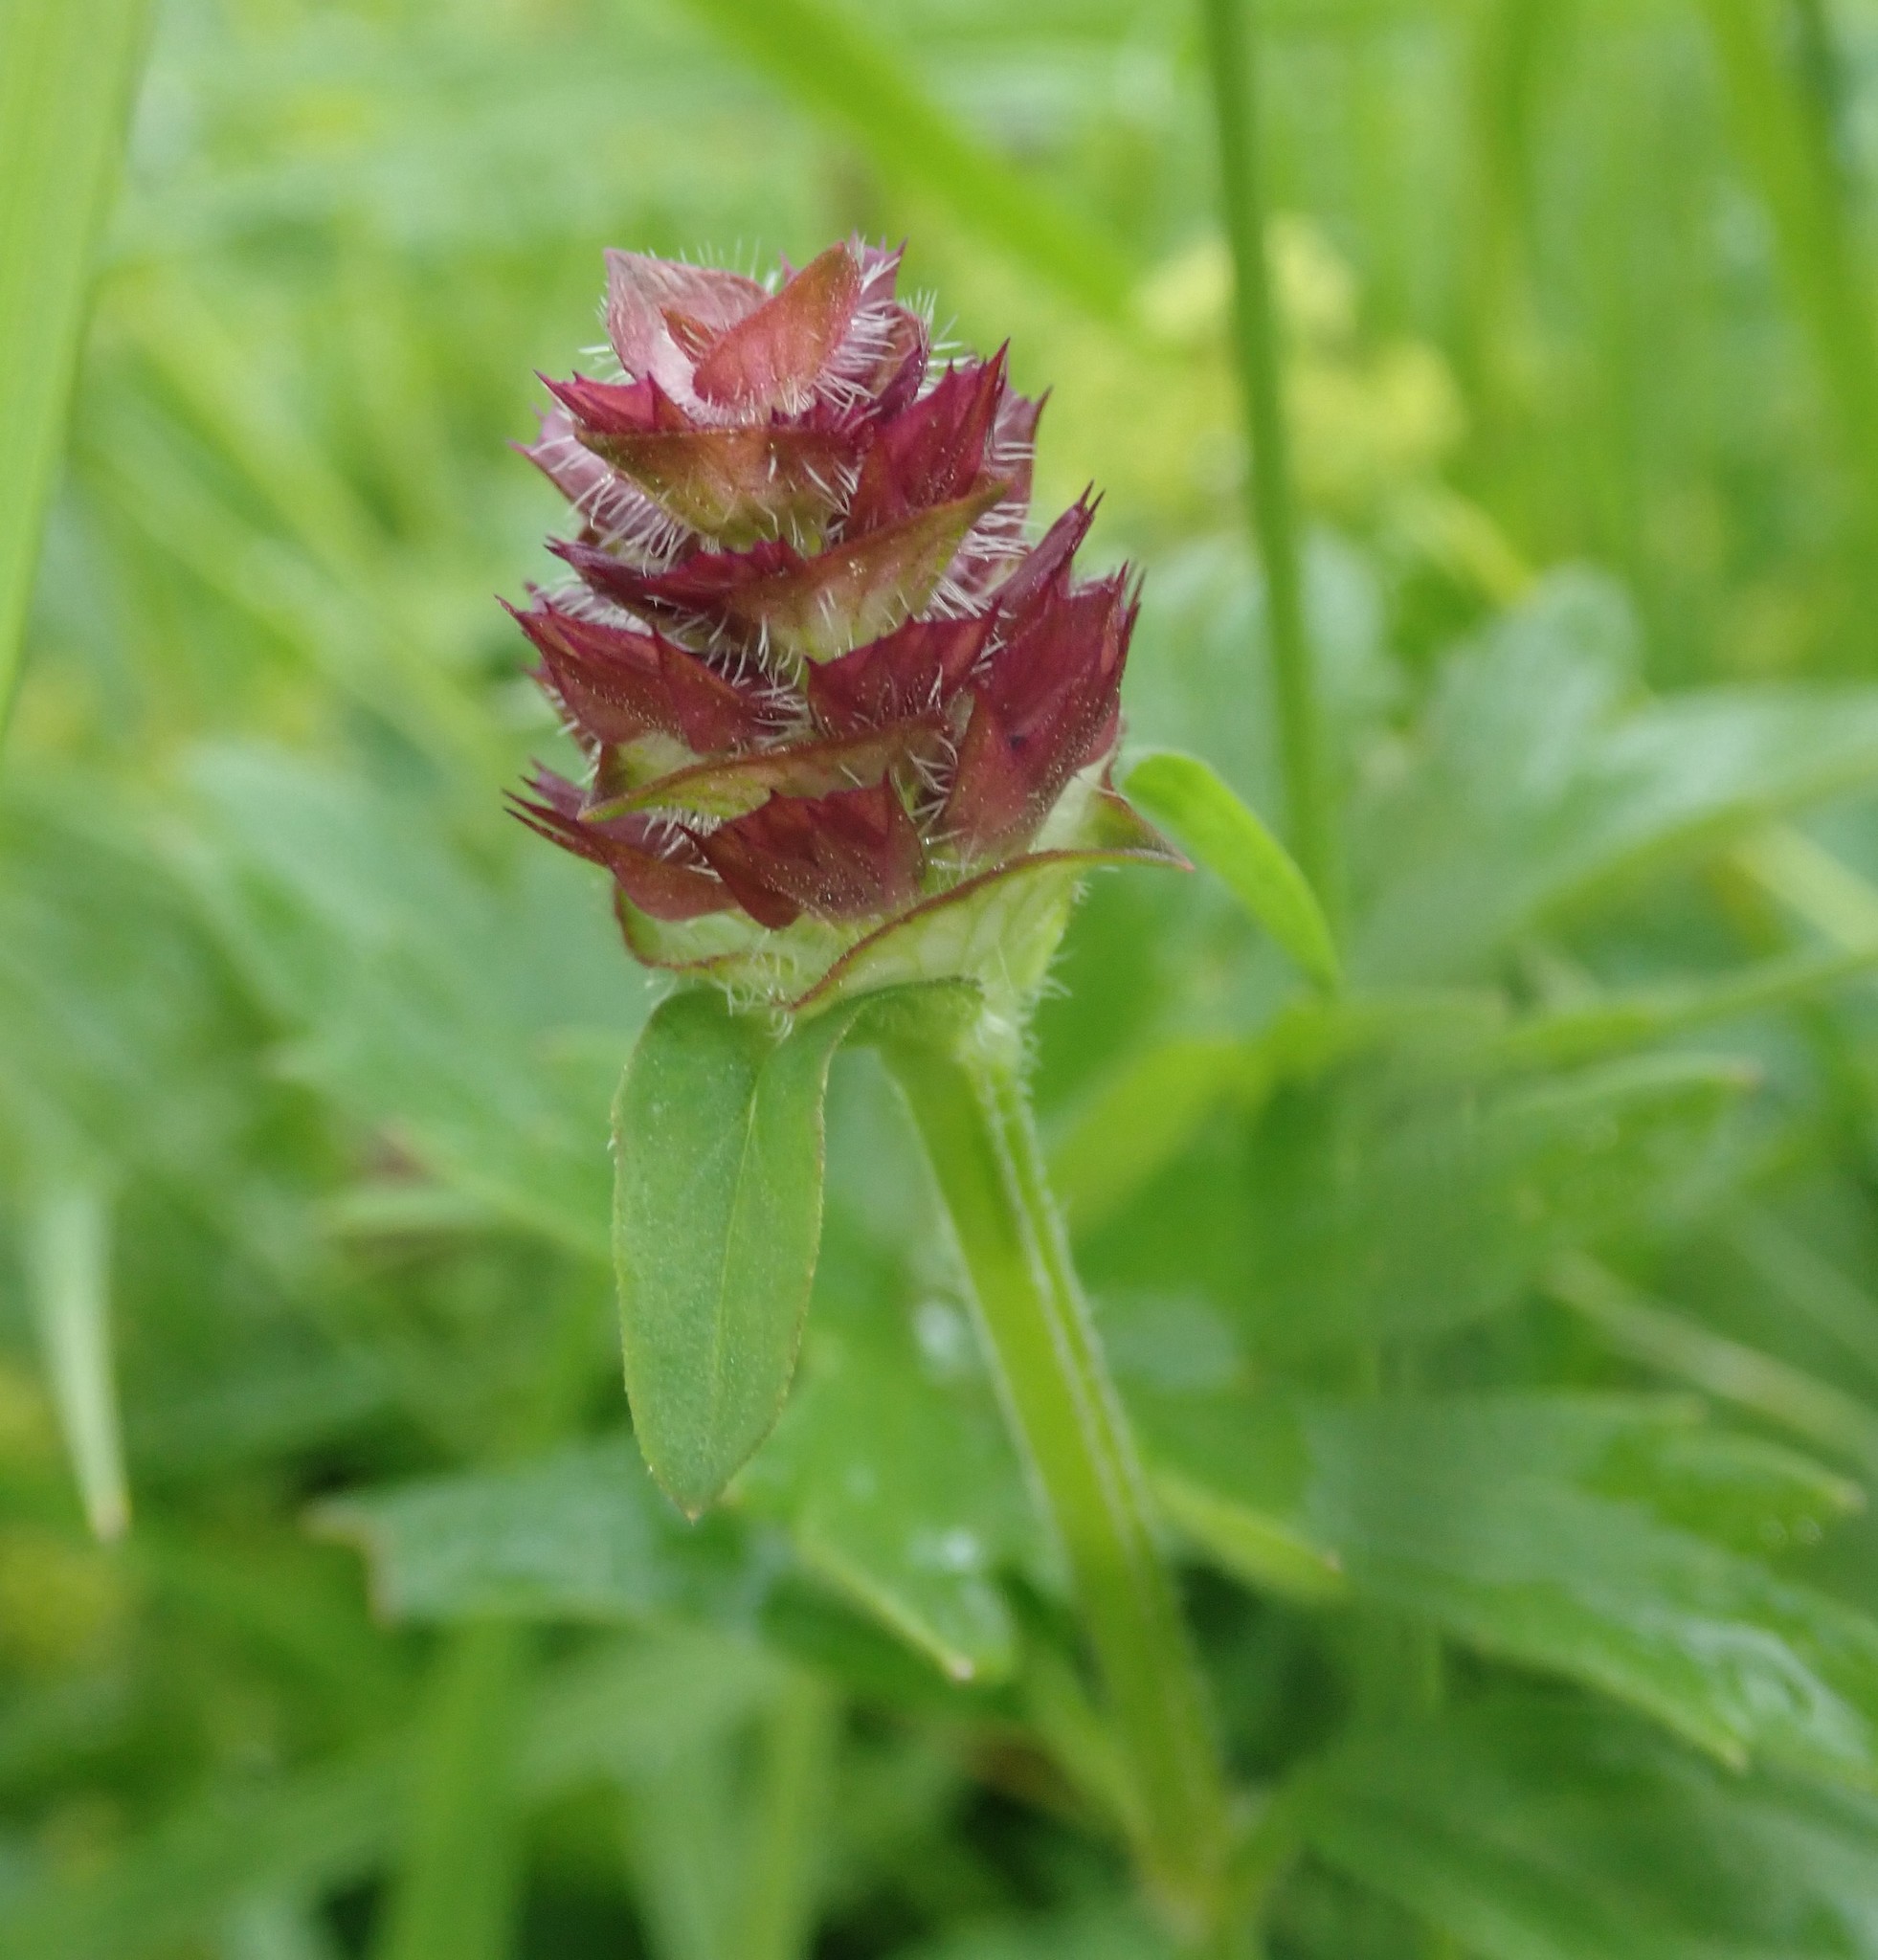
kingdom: Plantae
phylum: Tracheophyta
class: Magnoliopsida
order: Lamiales
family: Lamiaceae
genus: Prunella
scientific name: Prunella vulgaris
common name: Heal-all
